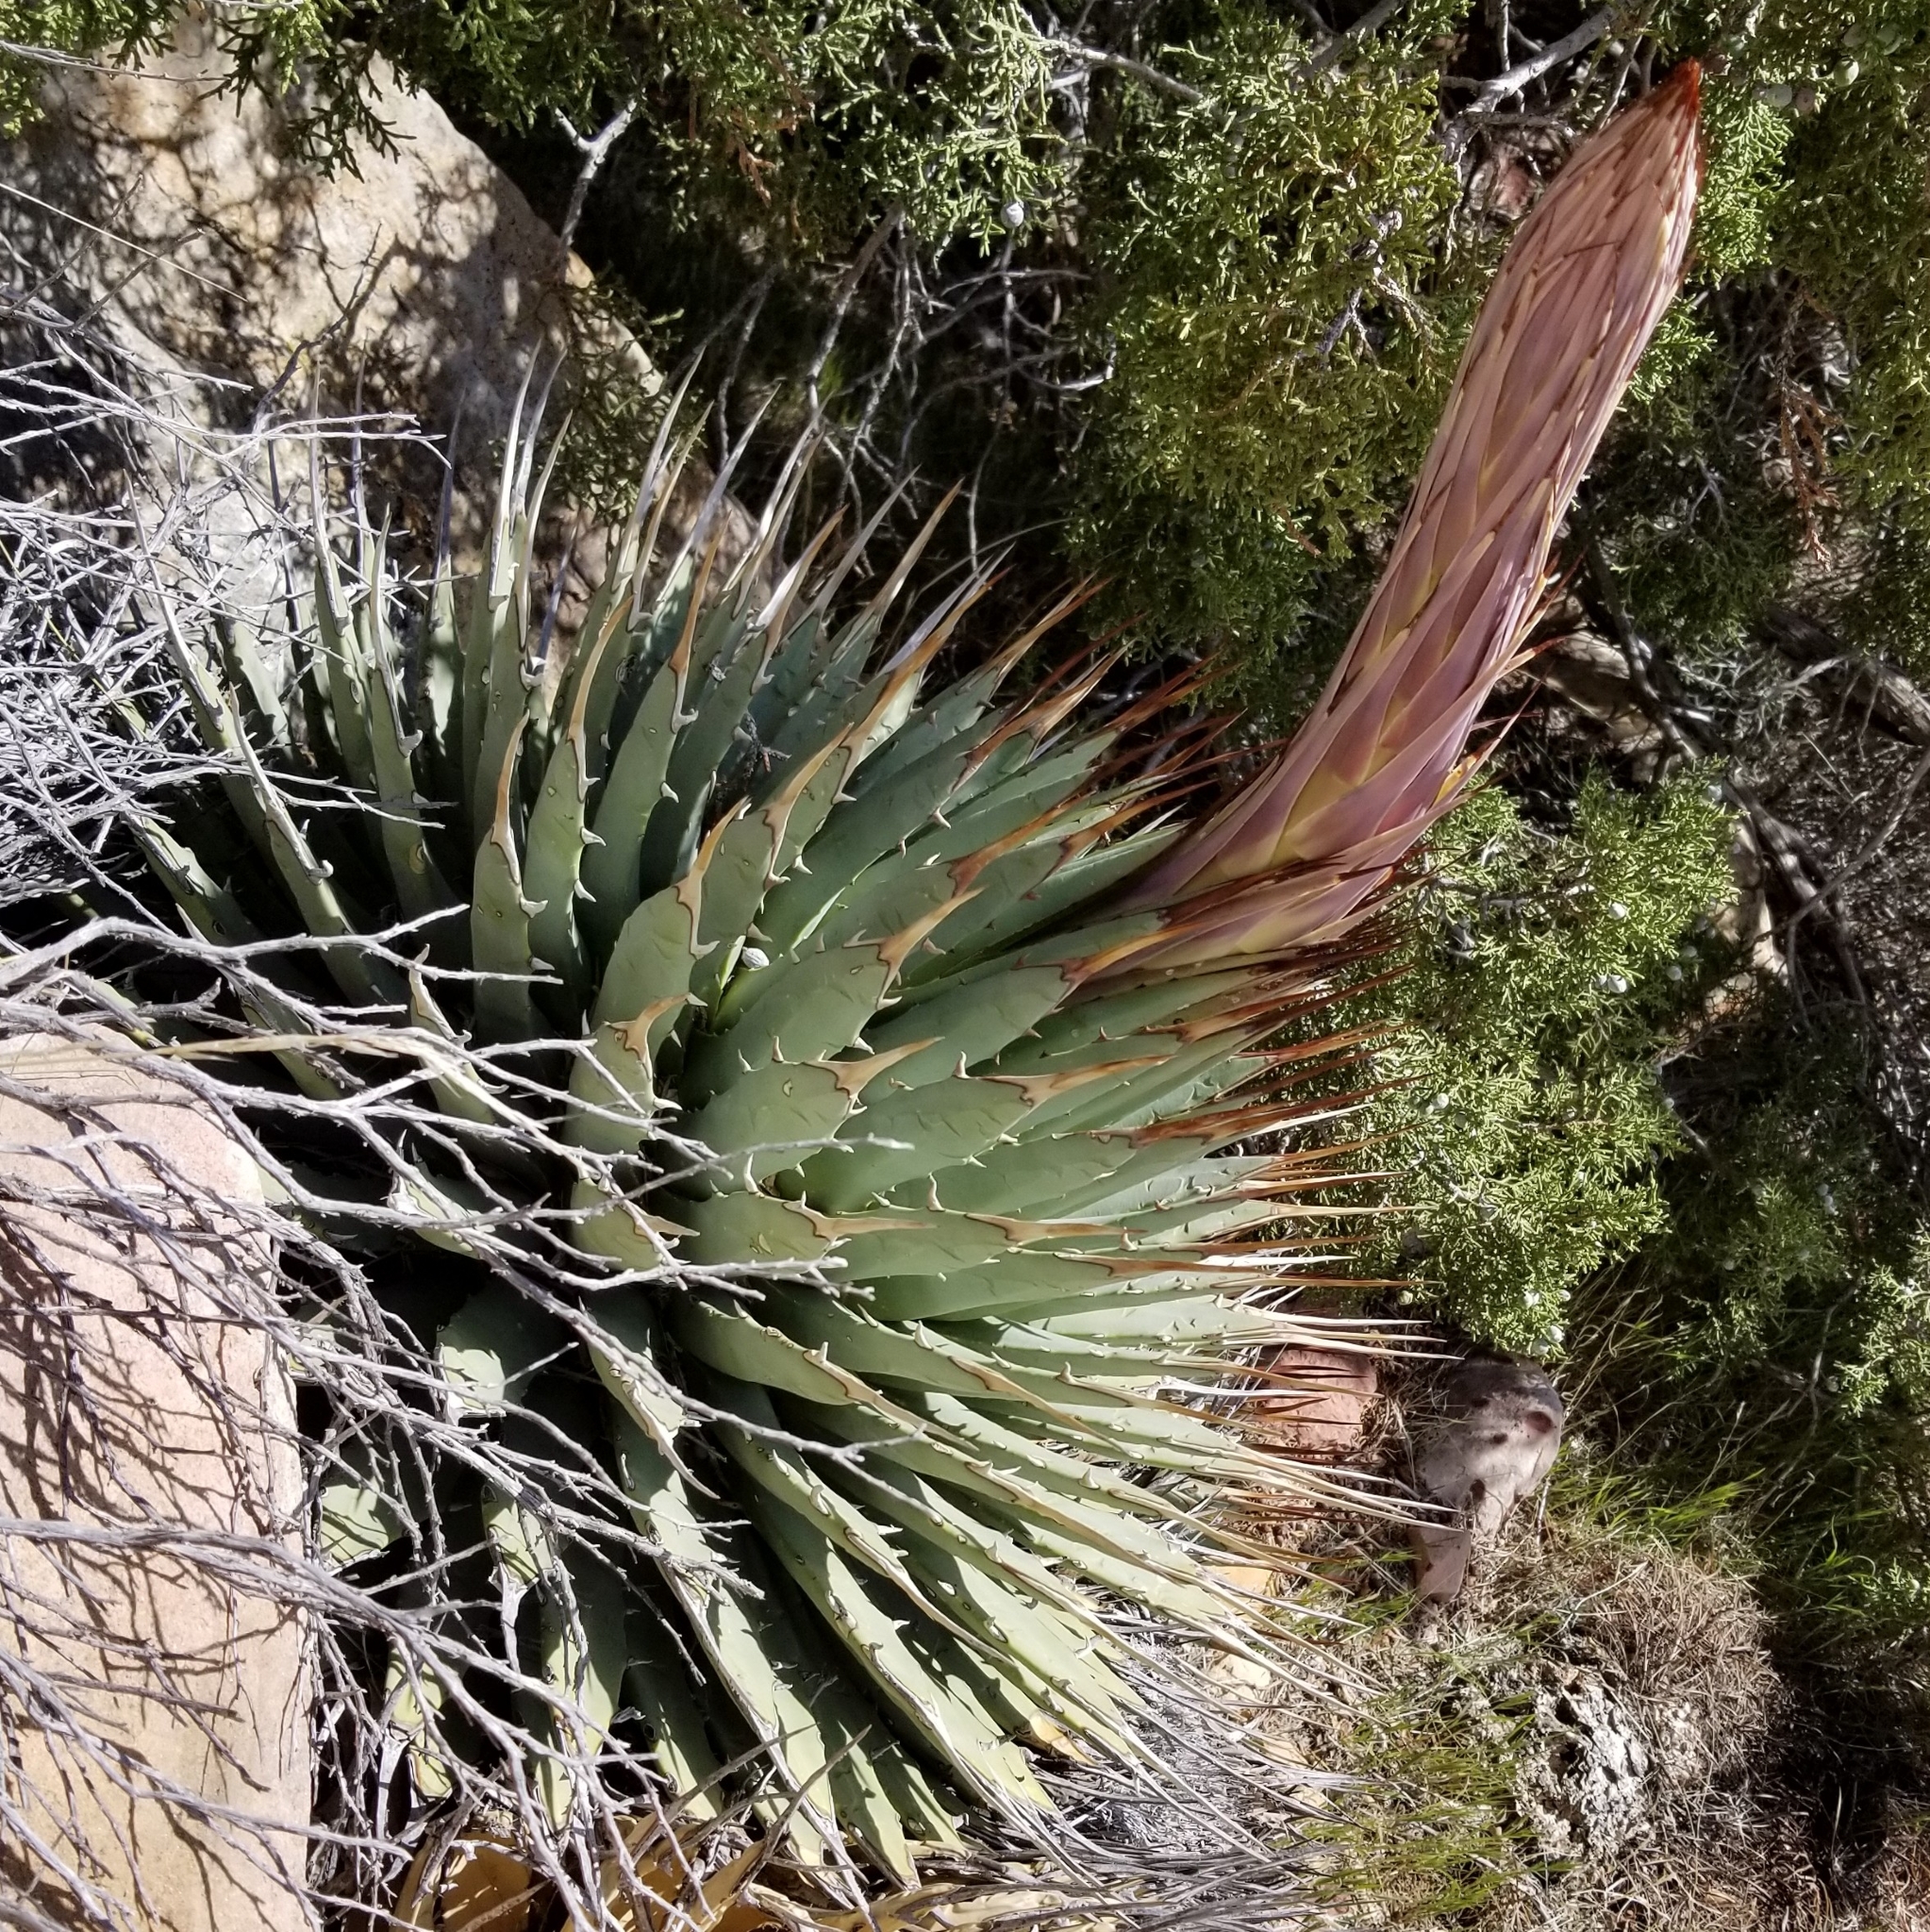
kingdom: Plantae
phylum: Tracheophyta
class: Liliopsida
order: Asparagales
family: Asparagaceae
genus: Agave
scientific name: Agave utahensis
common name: Utah agave
